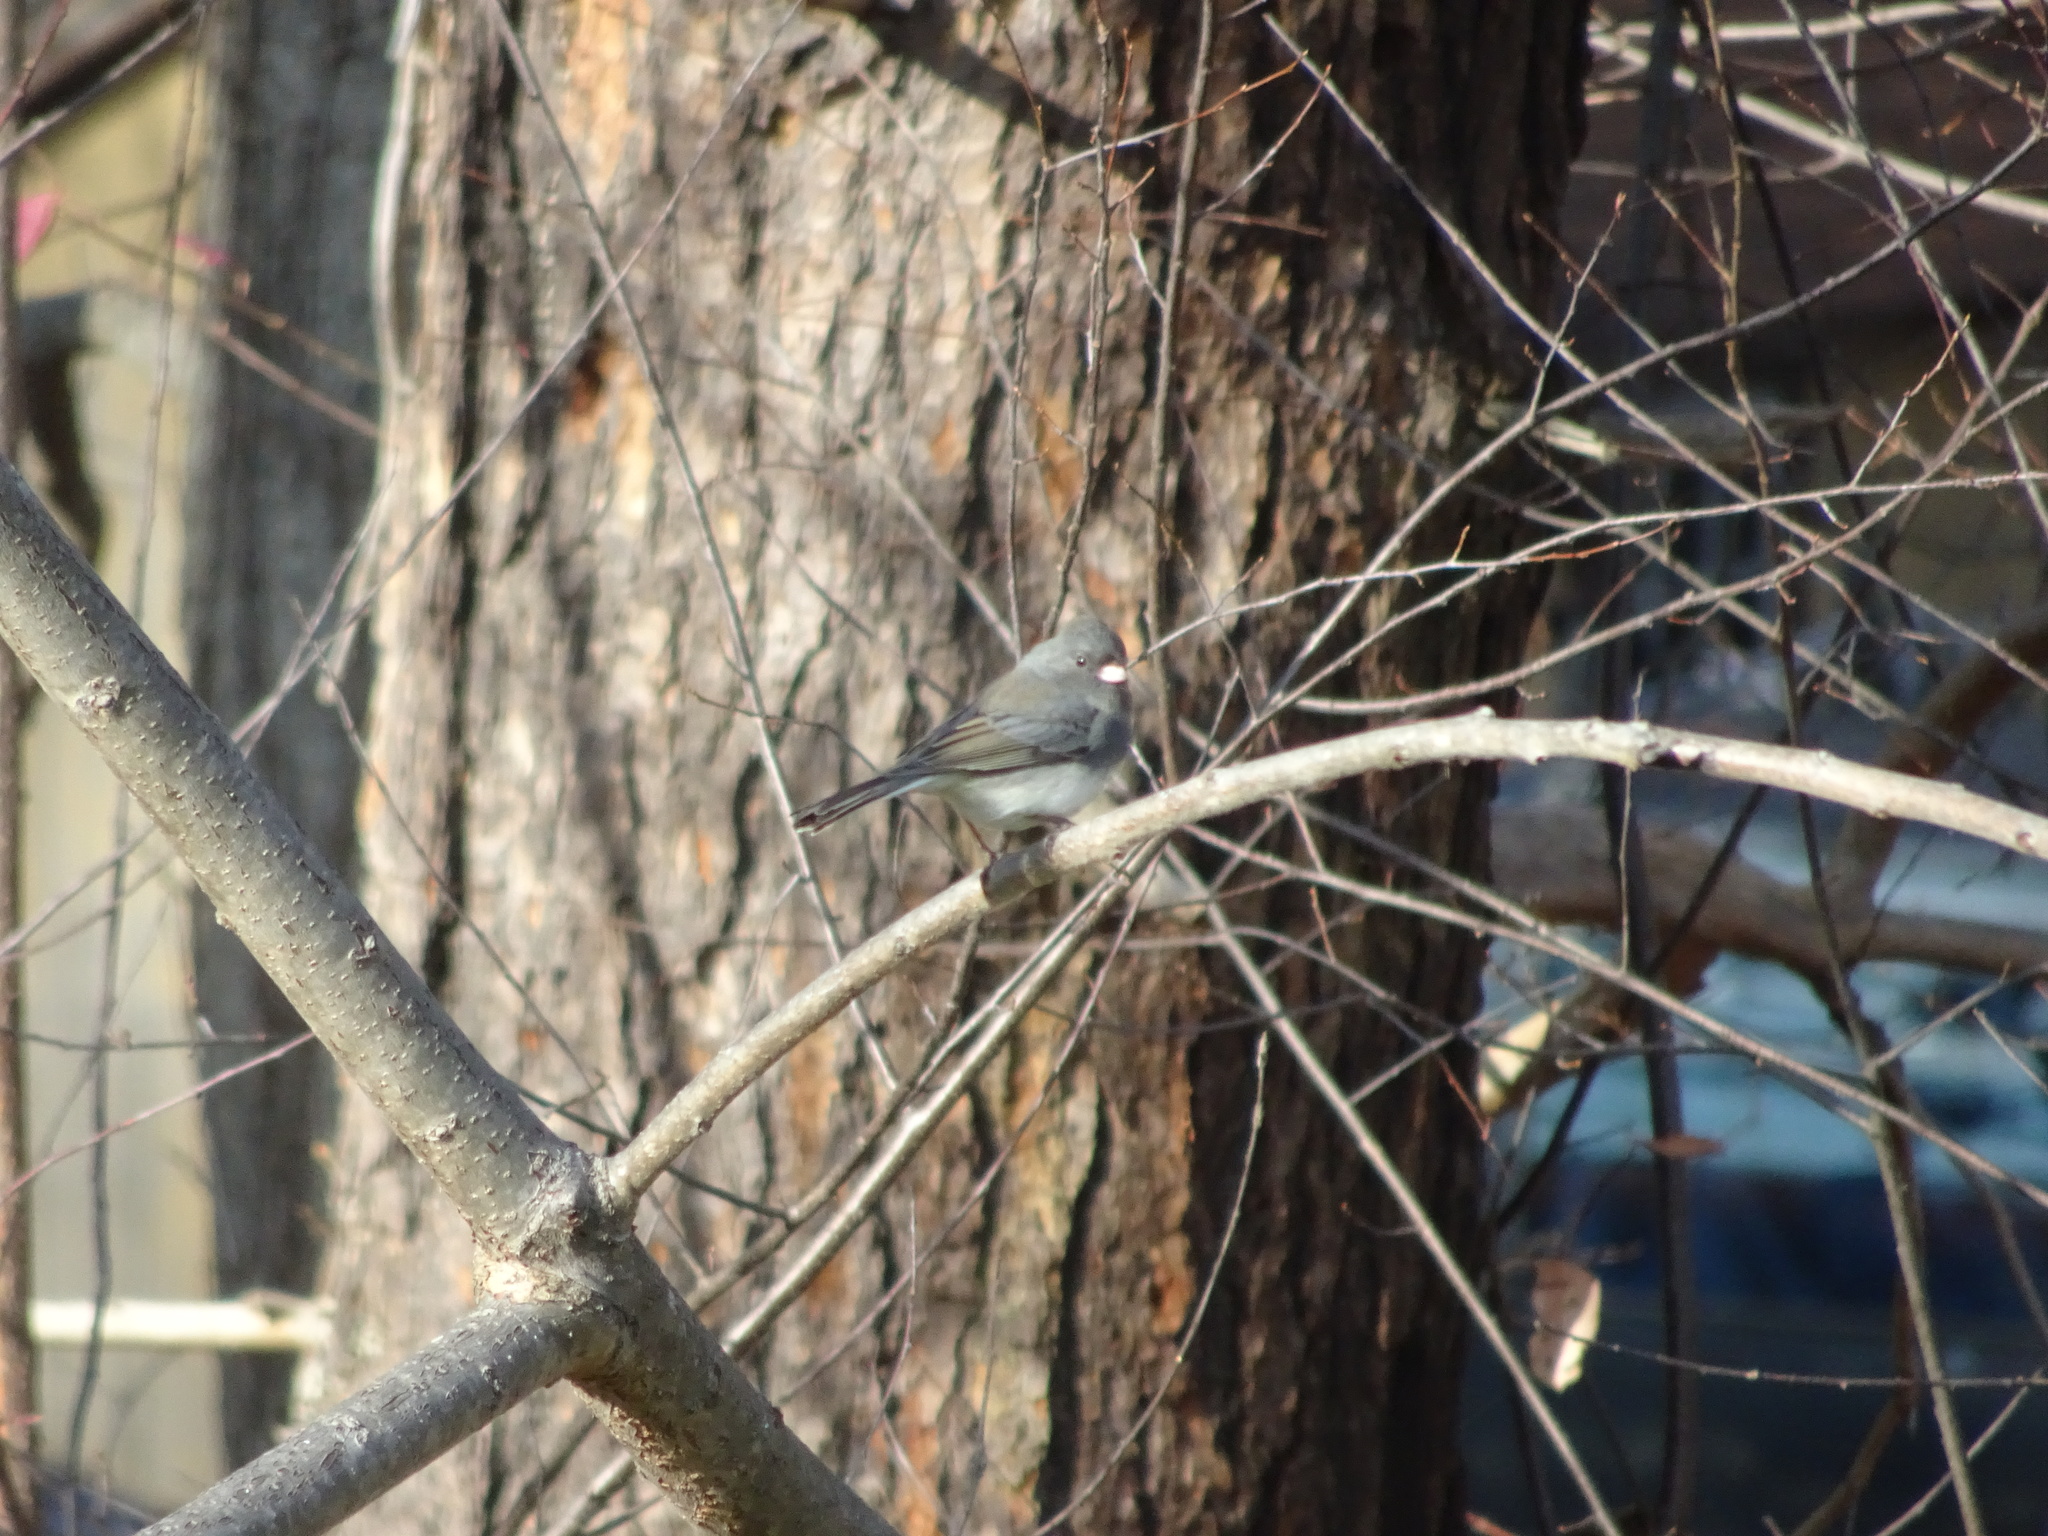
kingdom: Animalia
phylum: Chordata
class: Aves
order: Passeriformes
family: Passerellidae
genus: Junco
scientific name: Junco hyemalis
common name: Dark-eyed junco
